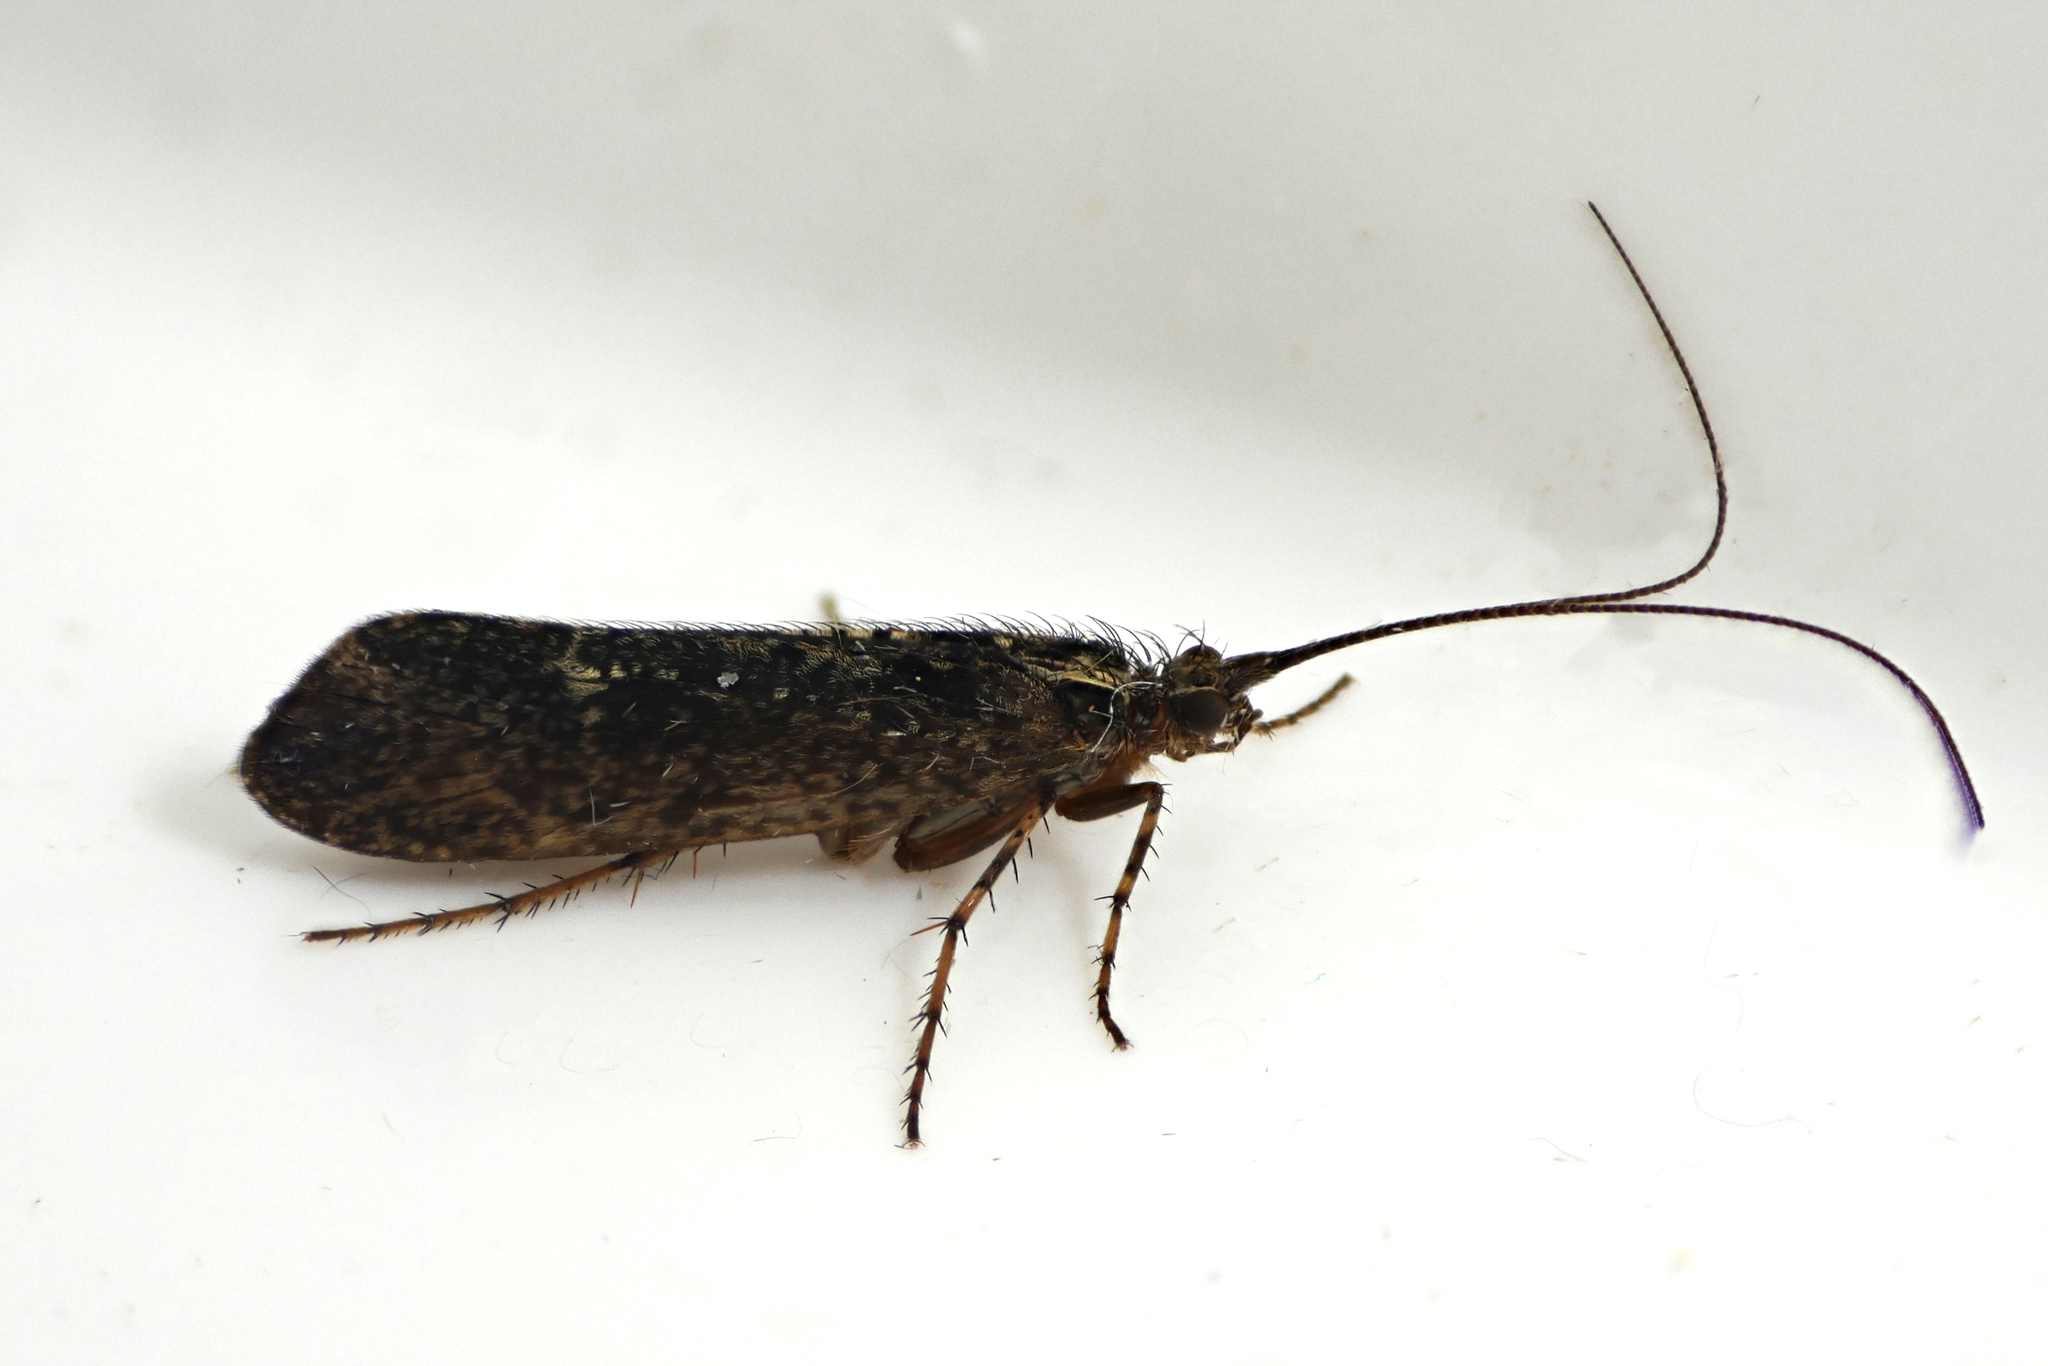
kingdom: Animalia
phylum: Arthropoda
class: Insecta
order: Trichoptera
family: Limnephilidae
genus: Limnephilus
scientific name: Limnephilus sparsus
